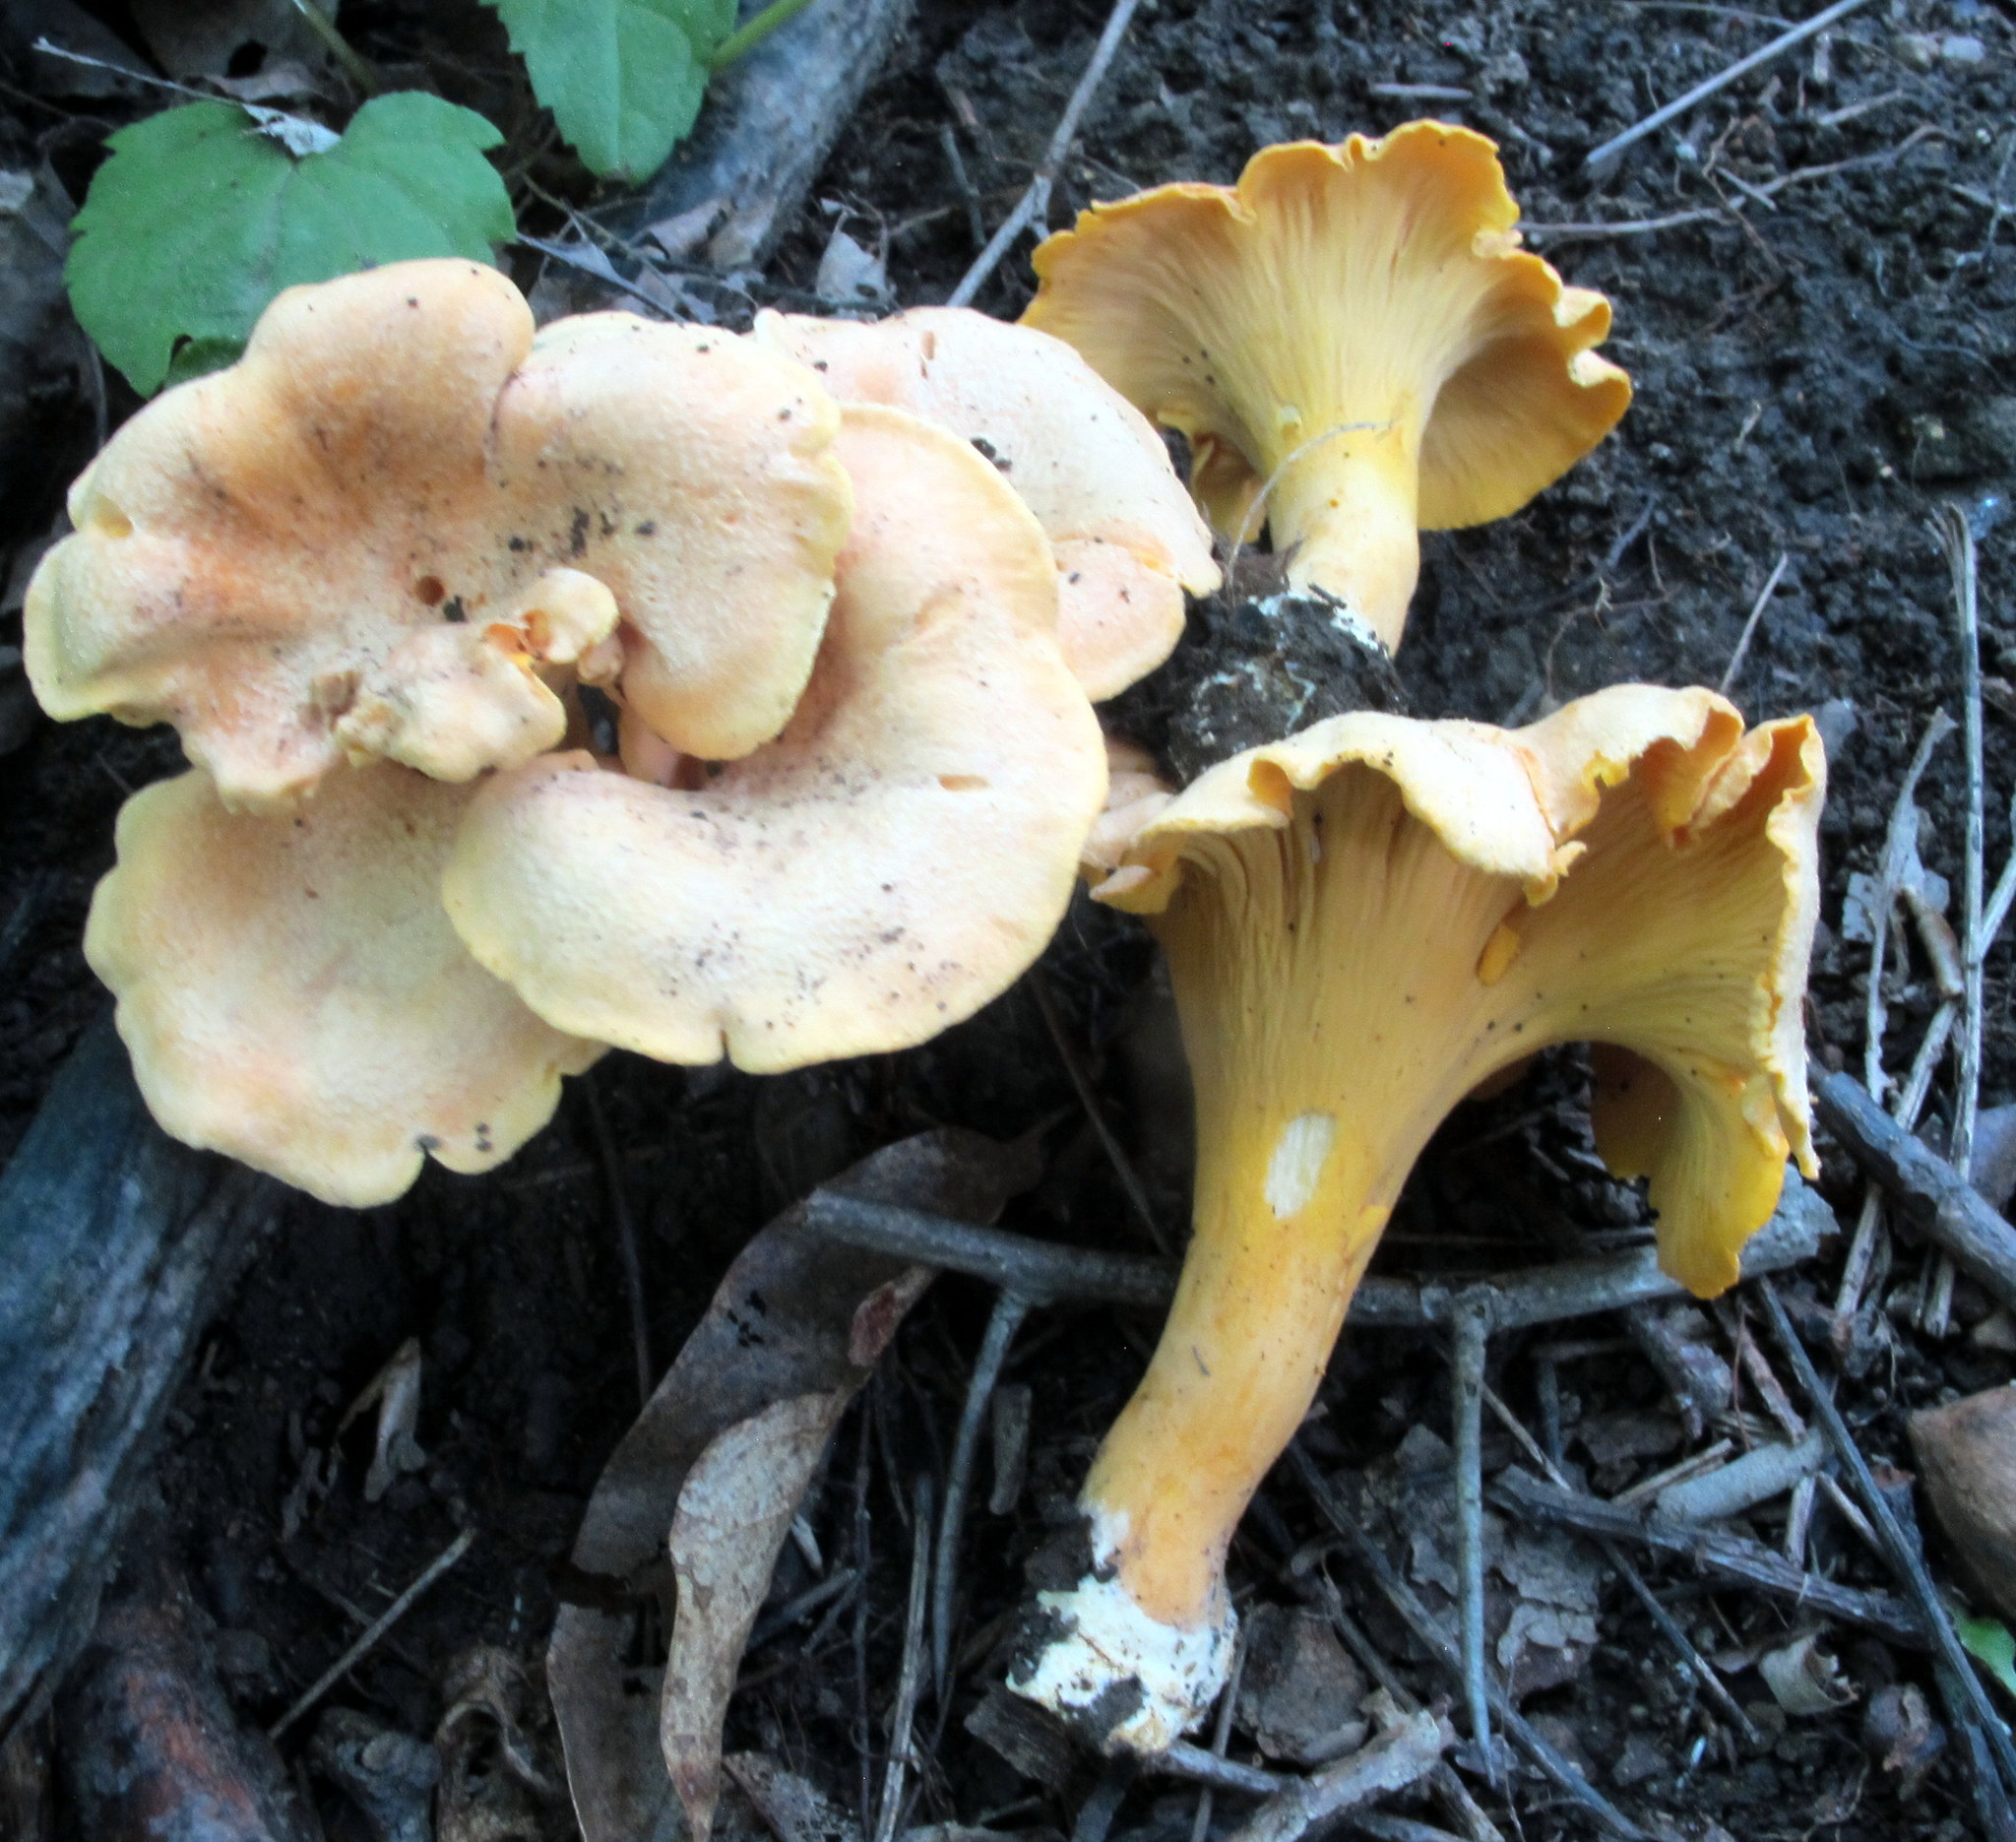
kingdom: Fungi
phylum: Basidiomycota
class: Agaricomycetes
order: Cantharellales
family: Hydnaceae
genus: Cantharellus
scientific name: Cantharellus lateritius
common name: Smooth chanterelle
